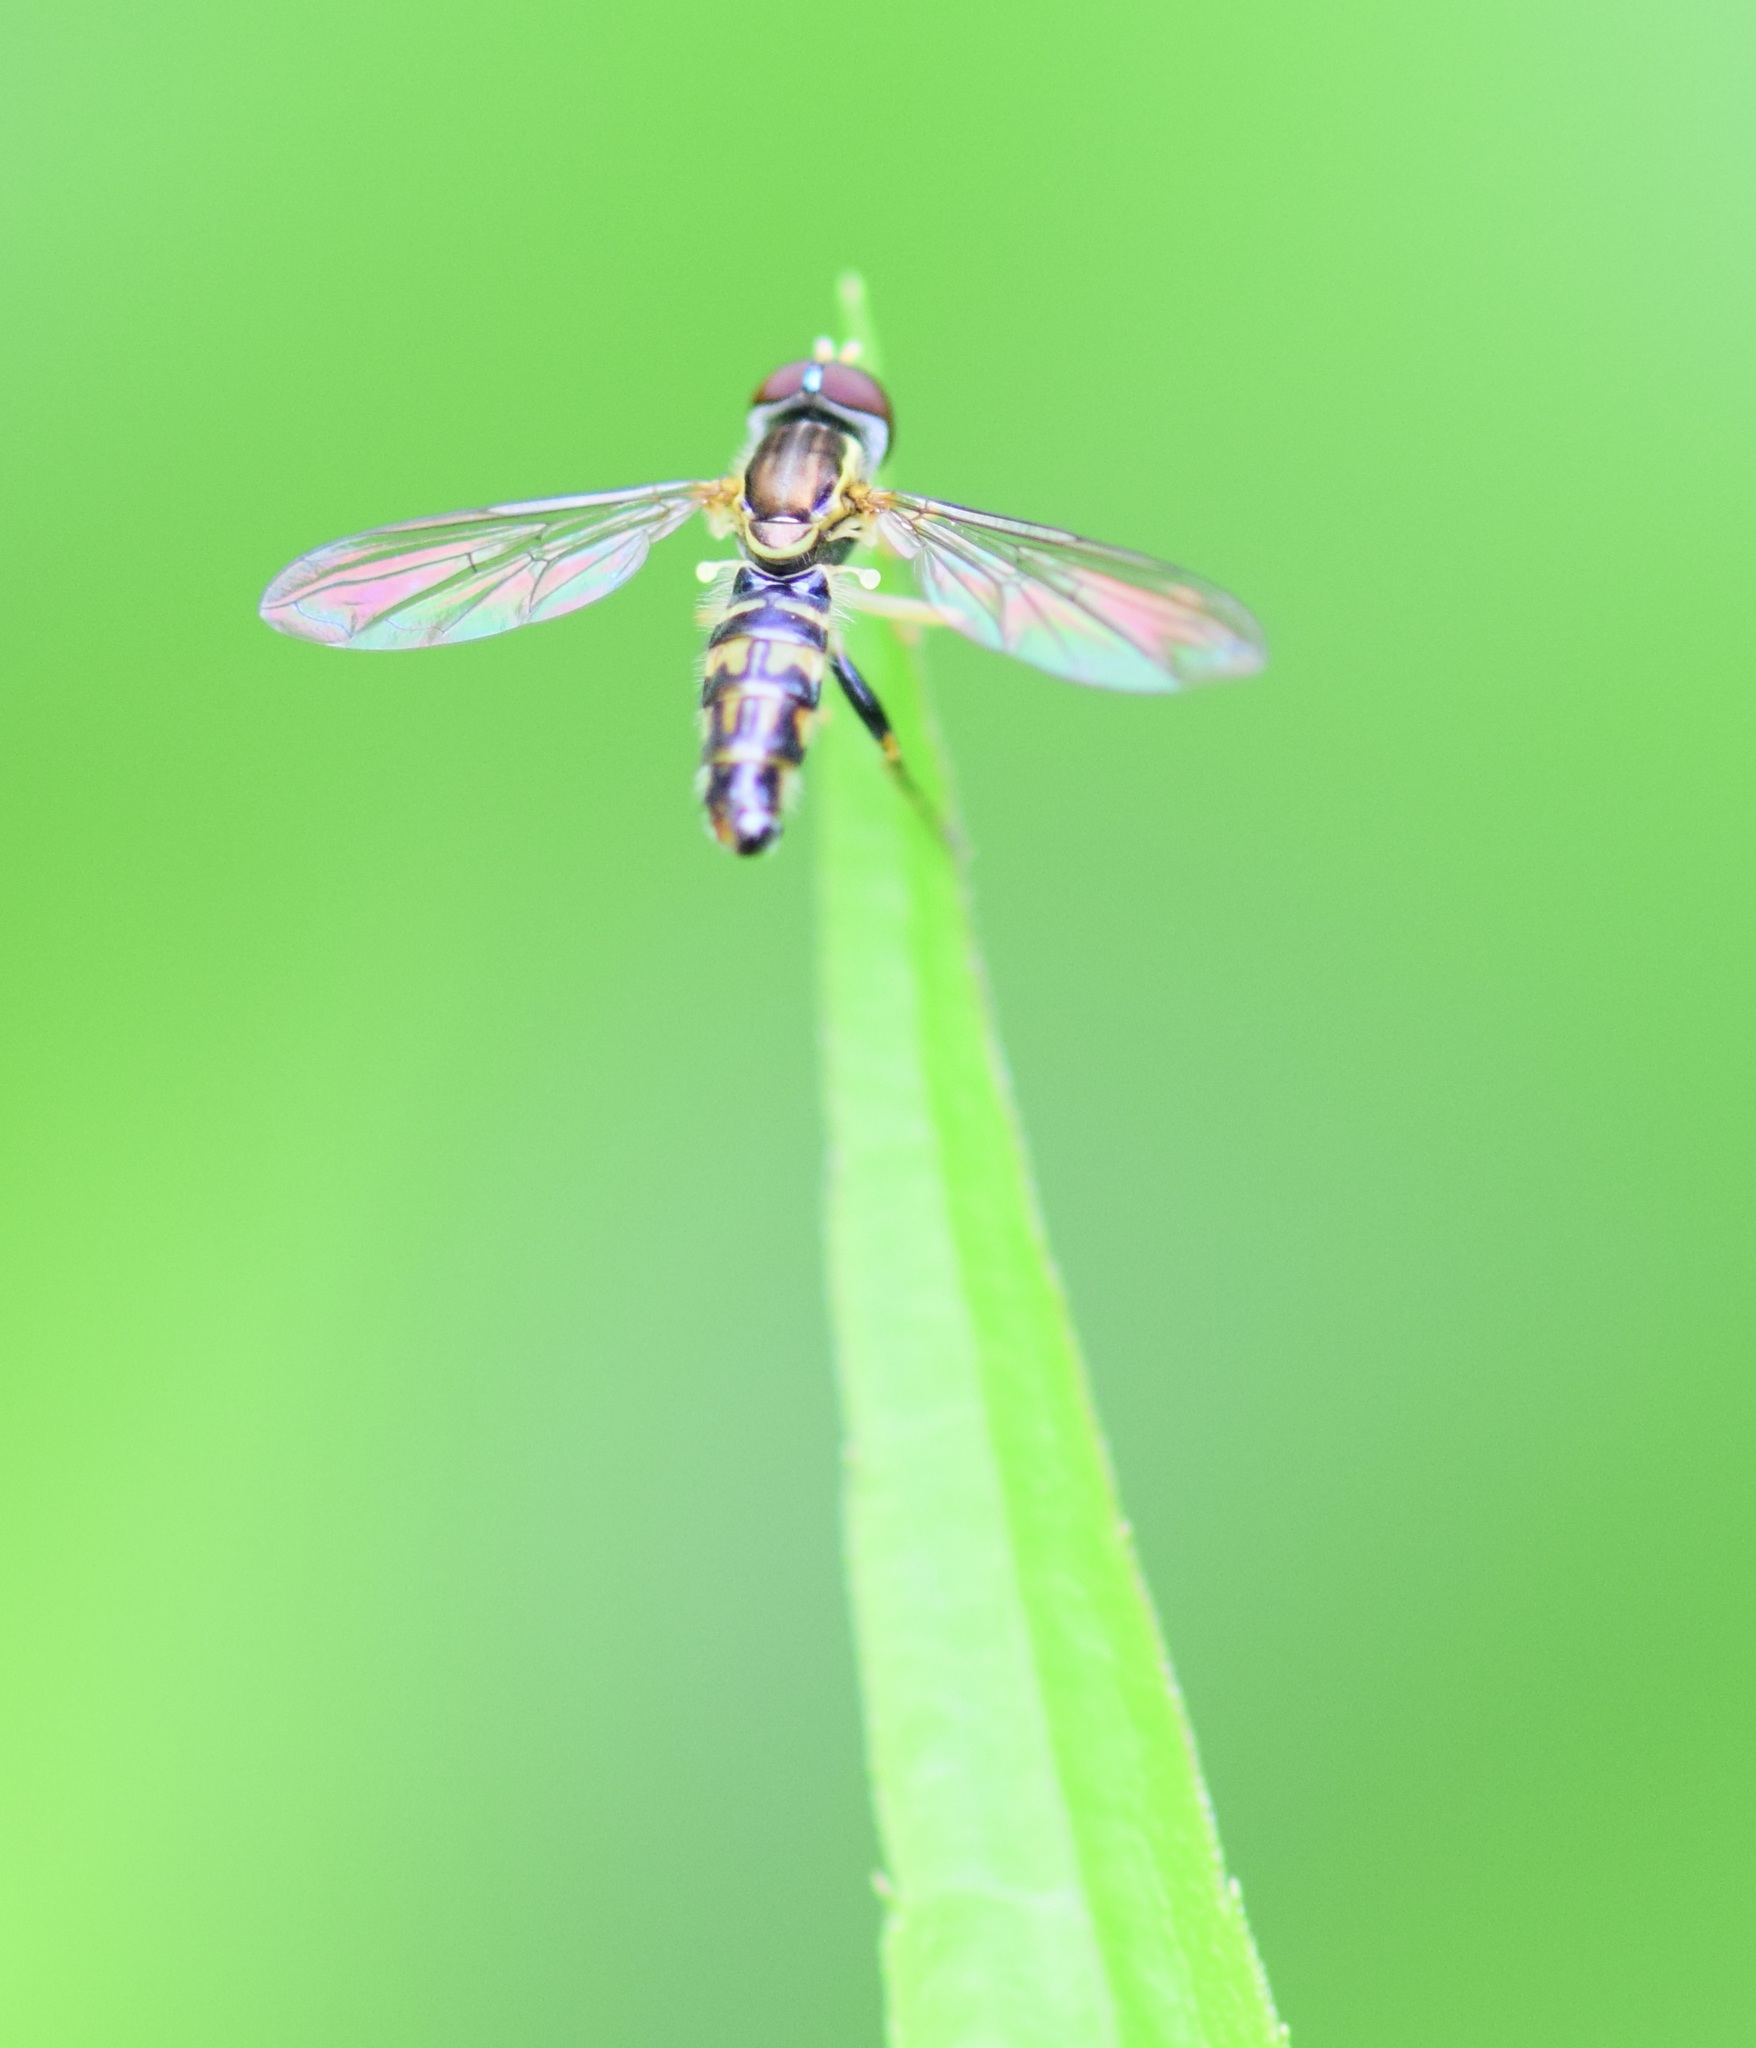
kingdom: Animalia
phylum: Arthropoda
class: Insecta
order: Diptera
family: Syrphidae
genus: Toxomerus
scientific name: Toxomerus geminatus
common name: Eastern calligrapher
